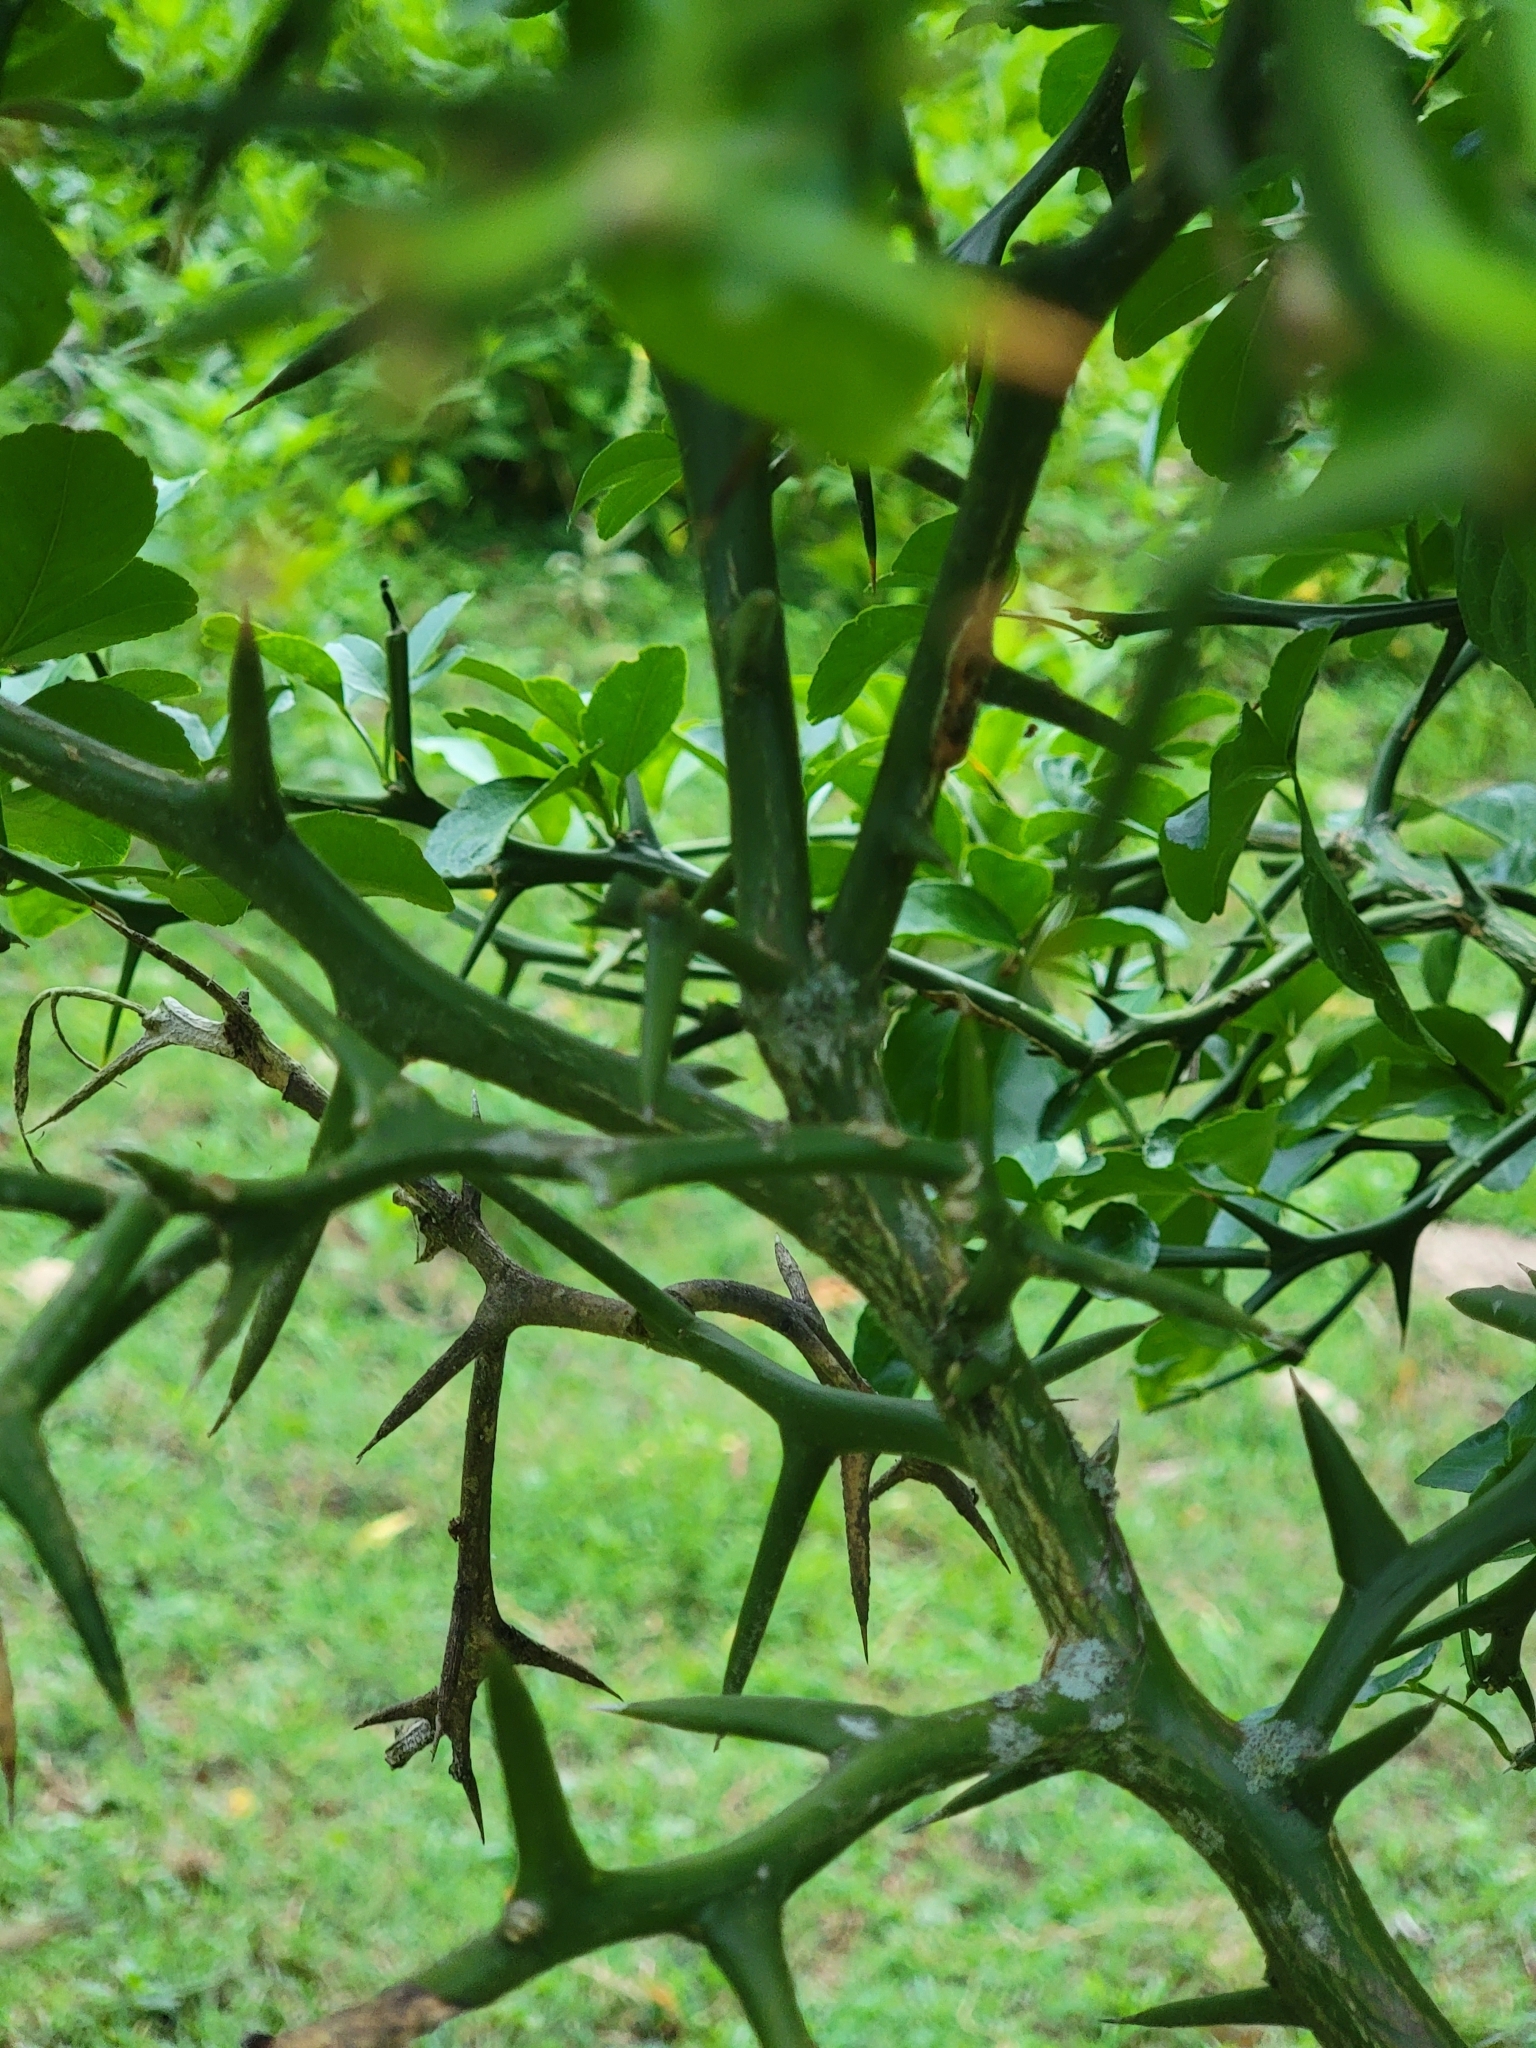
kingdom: Plantae
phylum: Tracheophyta
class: Magnoliopsida
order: Sapindales
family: Rutaceae
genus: Citrus
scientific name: Citrus trifoliata
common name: Japanese bitter-orange
